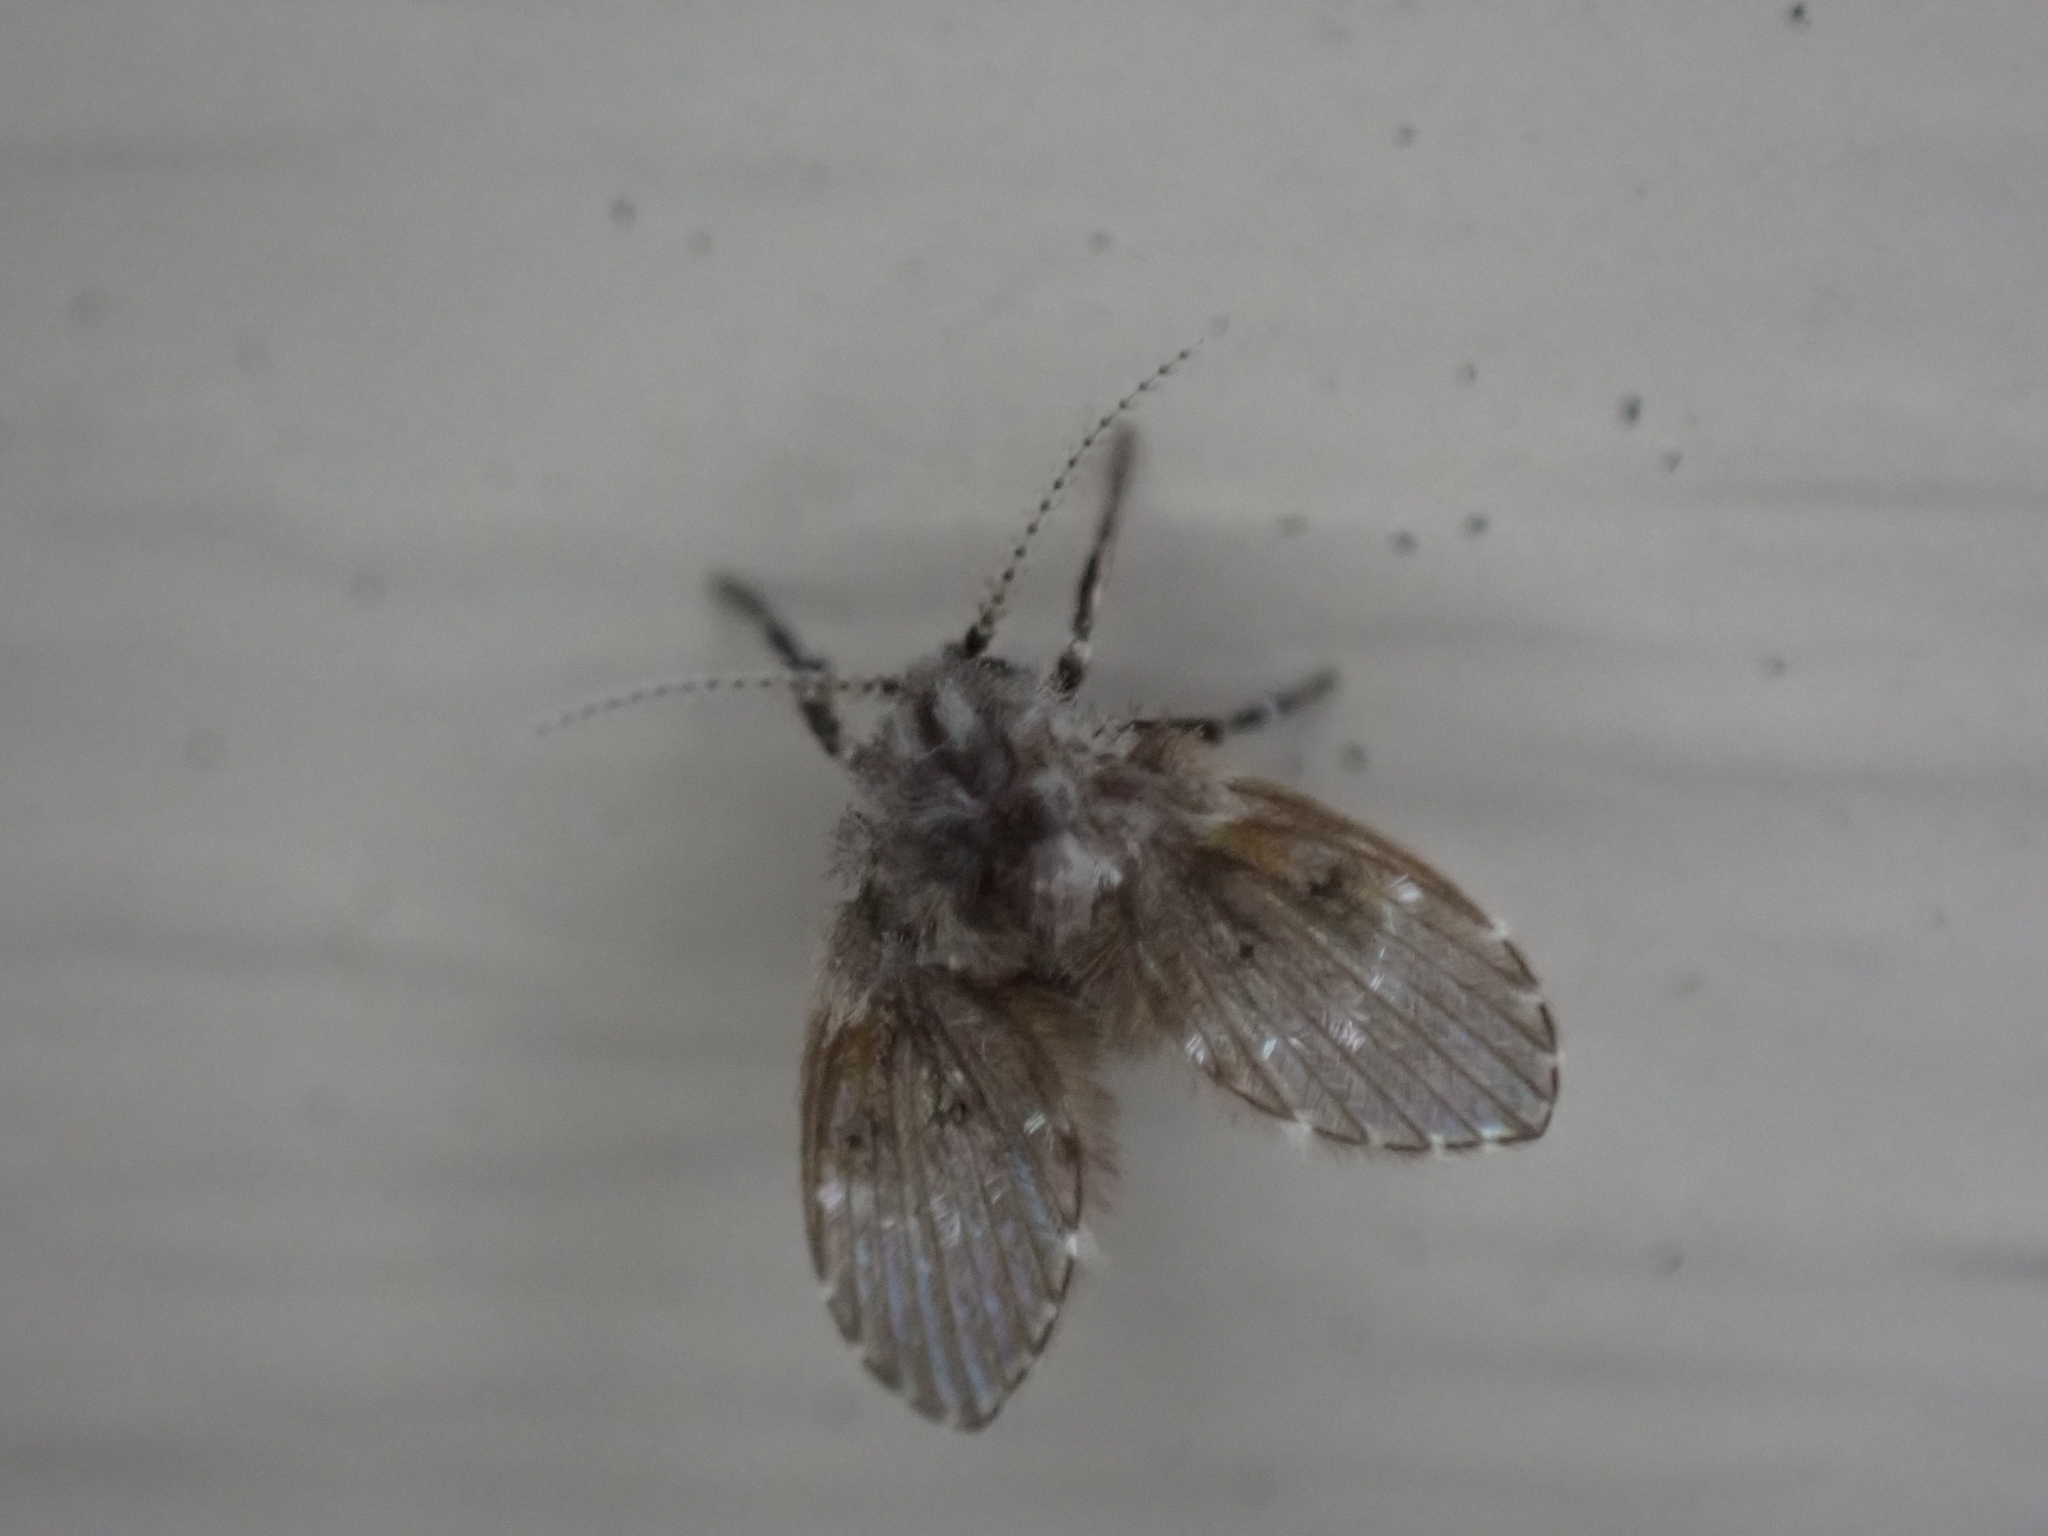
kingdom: Animalia
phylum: Arthropoda
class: Insecta
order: Diptera
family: Psychodidae
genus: Clogmia
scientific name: Clogmia albipunctatus
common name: White-spotted moth fly
